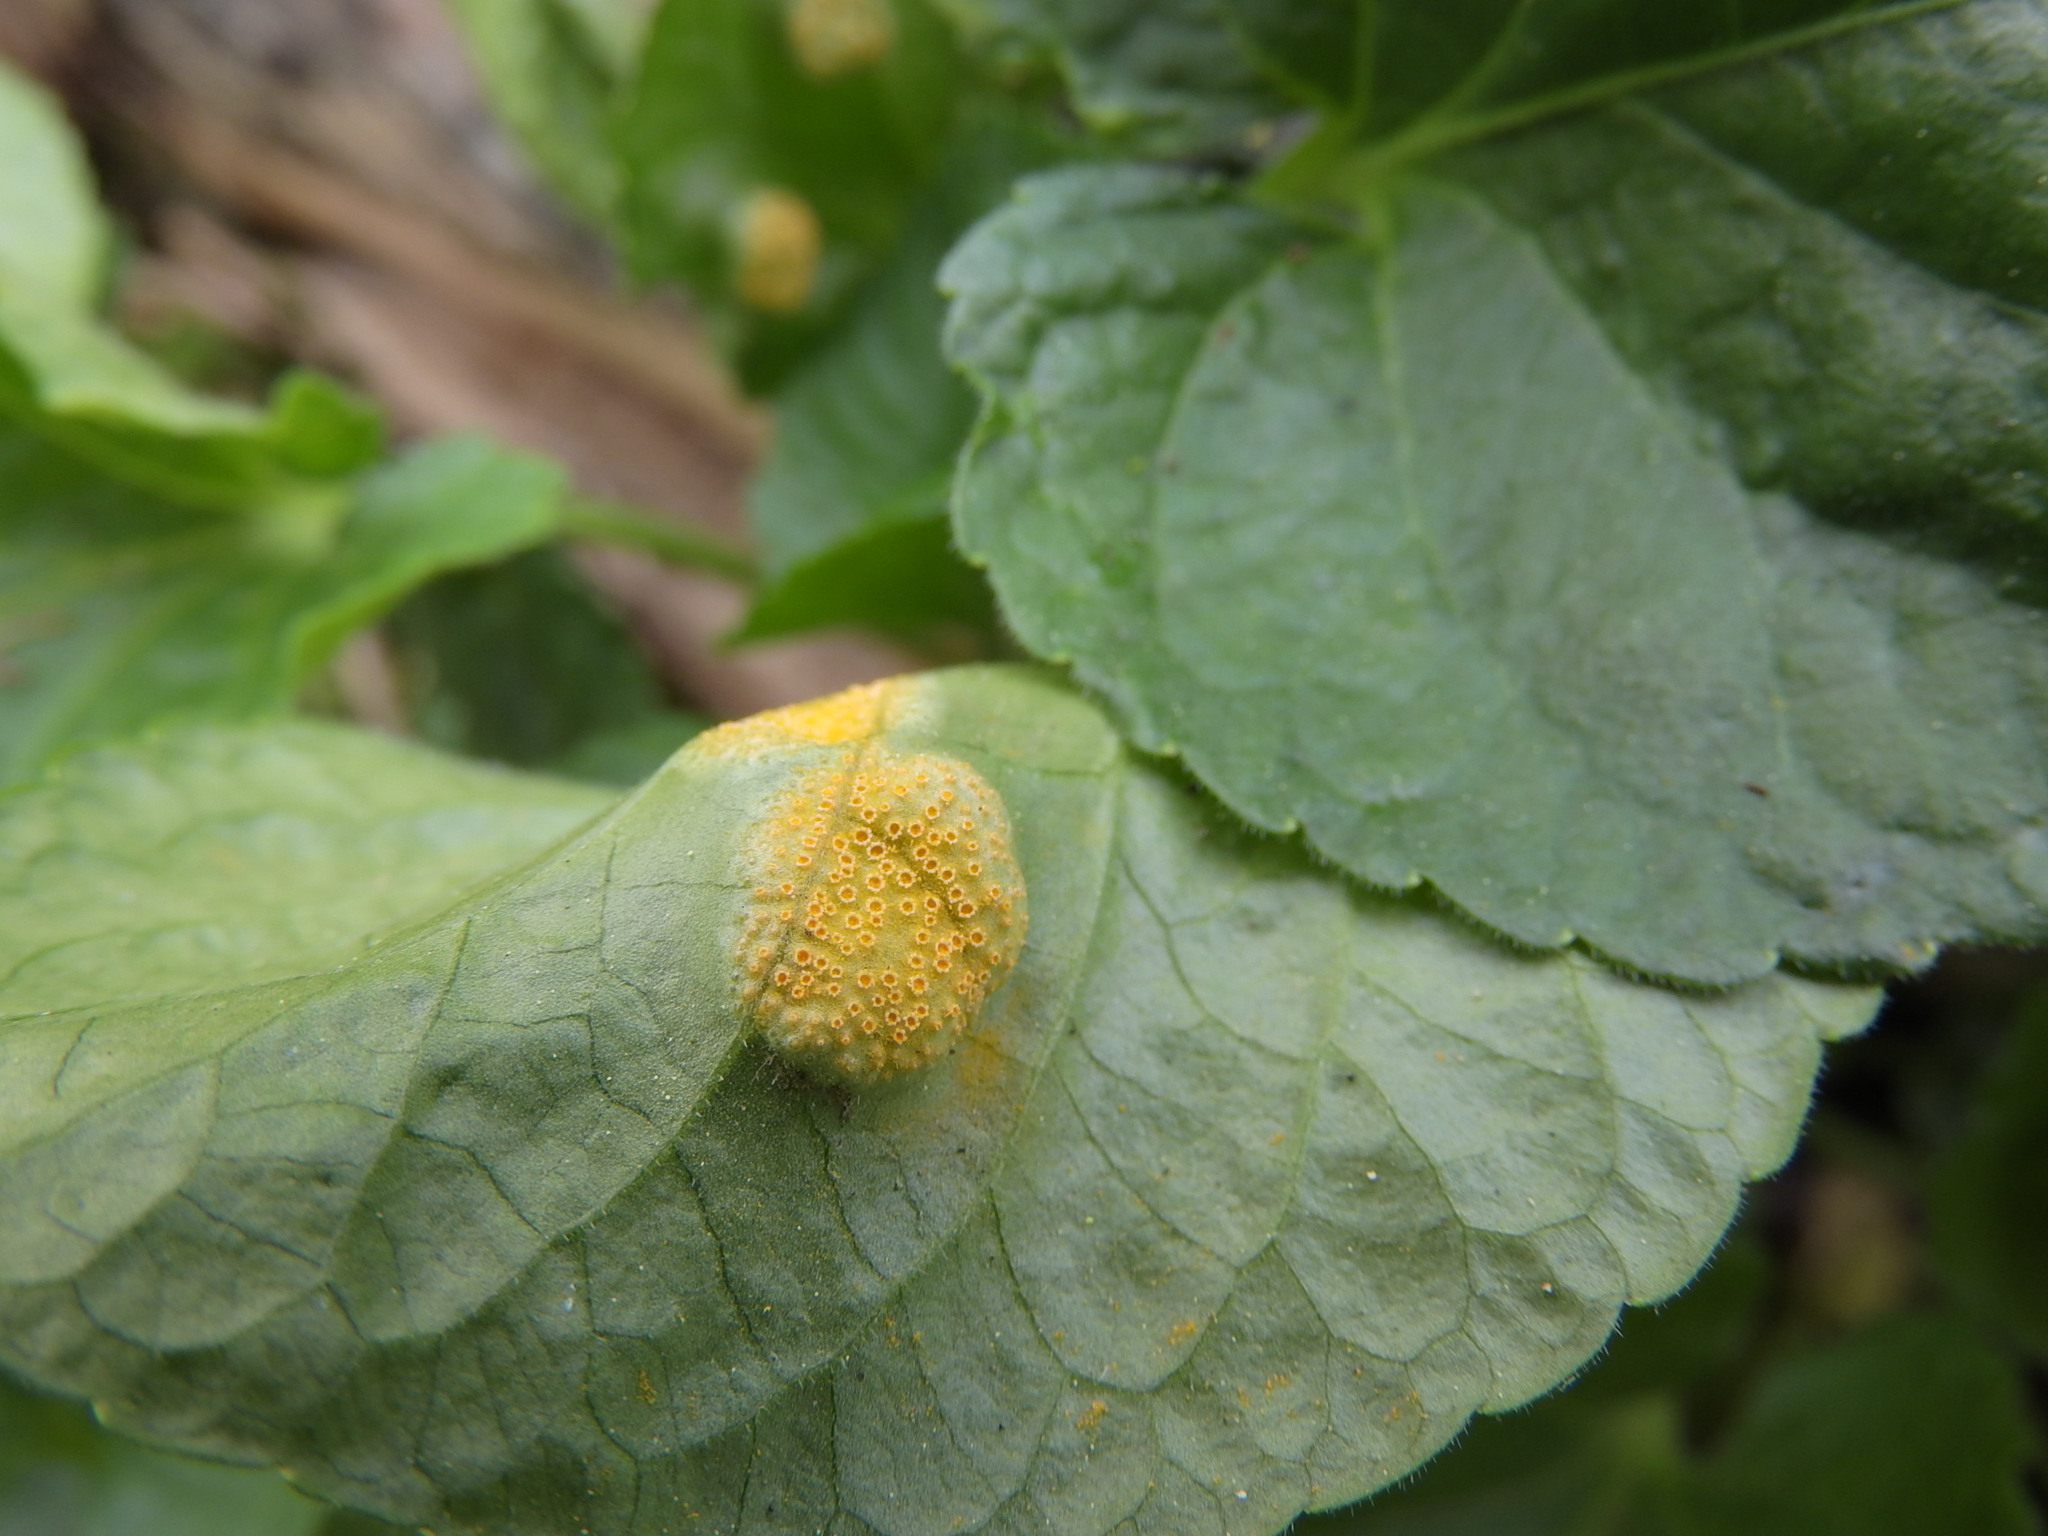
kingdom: Fungi
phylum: Basidiomycota
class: Pucciniomycetes
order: Pucciniales
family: Pucciniaceae
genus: Puccinia
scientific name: Puccinia violae
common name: Violet rust
